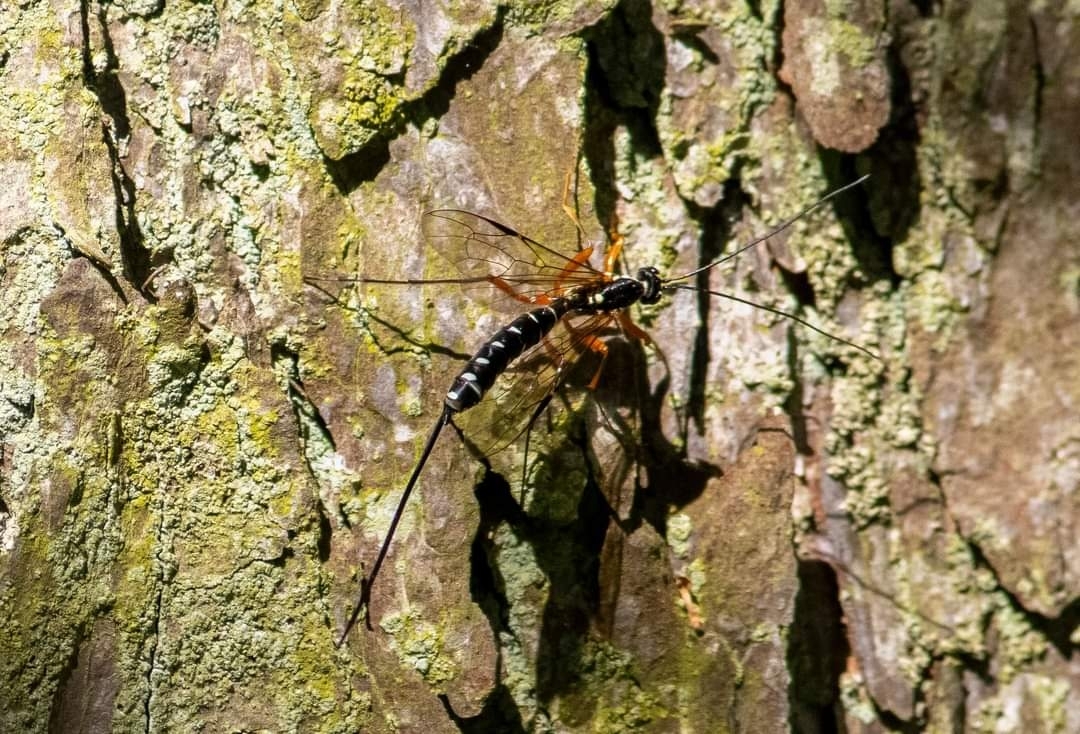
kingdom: Animalia
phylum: Arthropoda
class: Insecta
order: Hymenoptera
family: Ichneumonidae
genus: Rhyssa
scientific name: Rhyssa persuasoria
